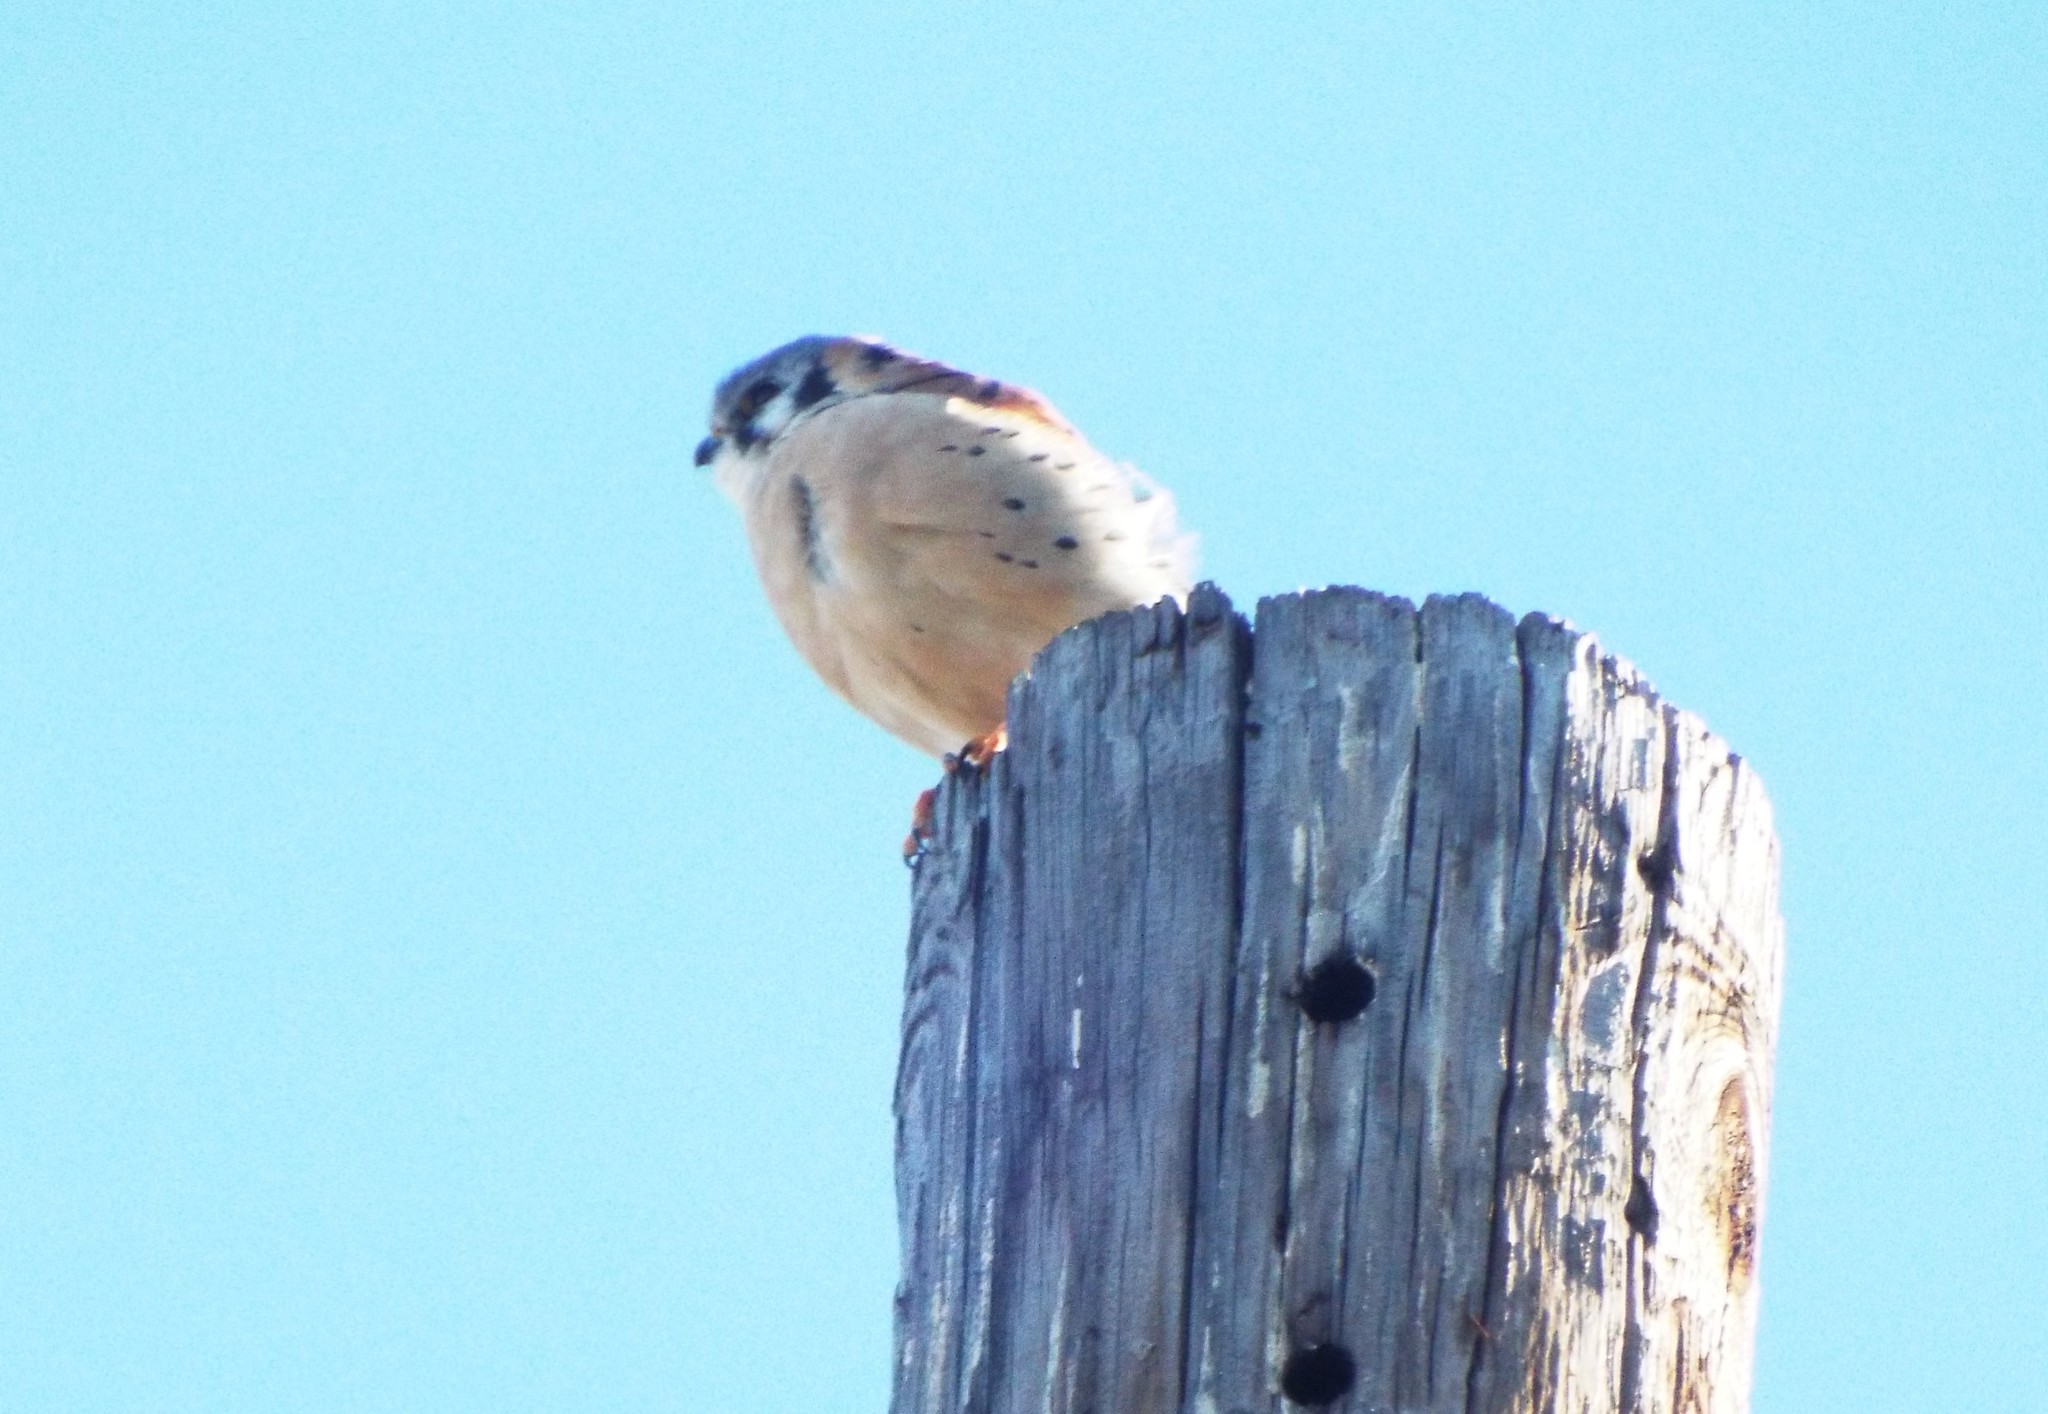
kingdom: Animalia
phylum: Chordata
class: Aves
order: Falconiformes
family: Falconidae
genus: Falco
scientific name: Falco sparverius
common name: American kestrel
